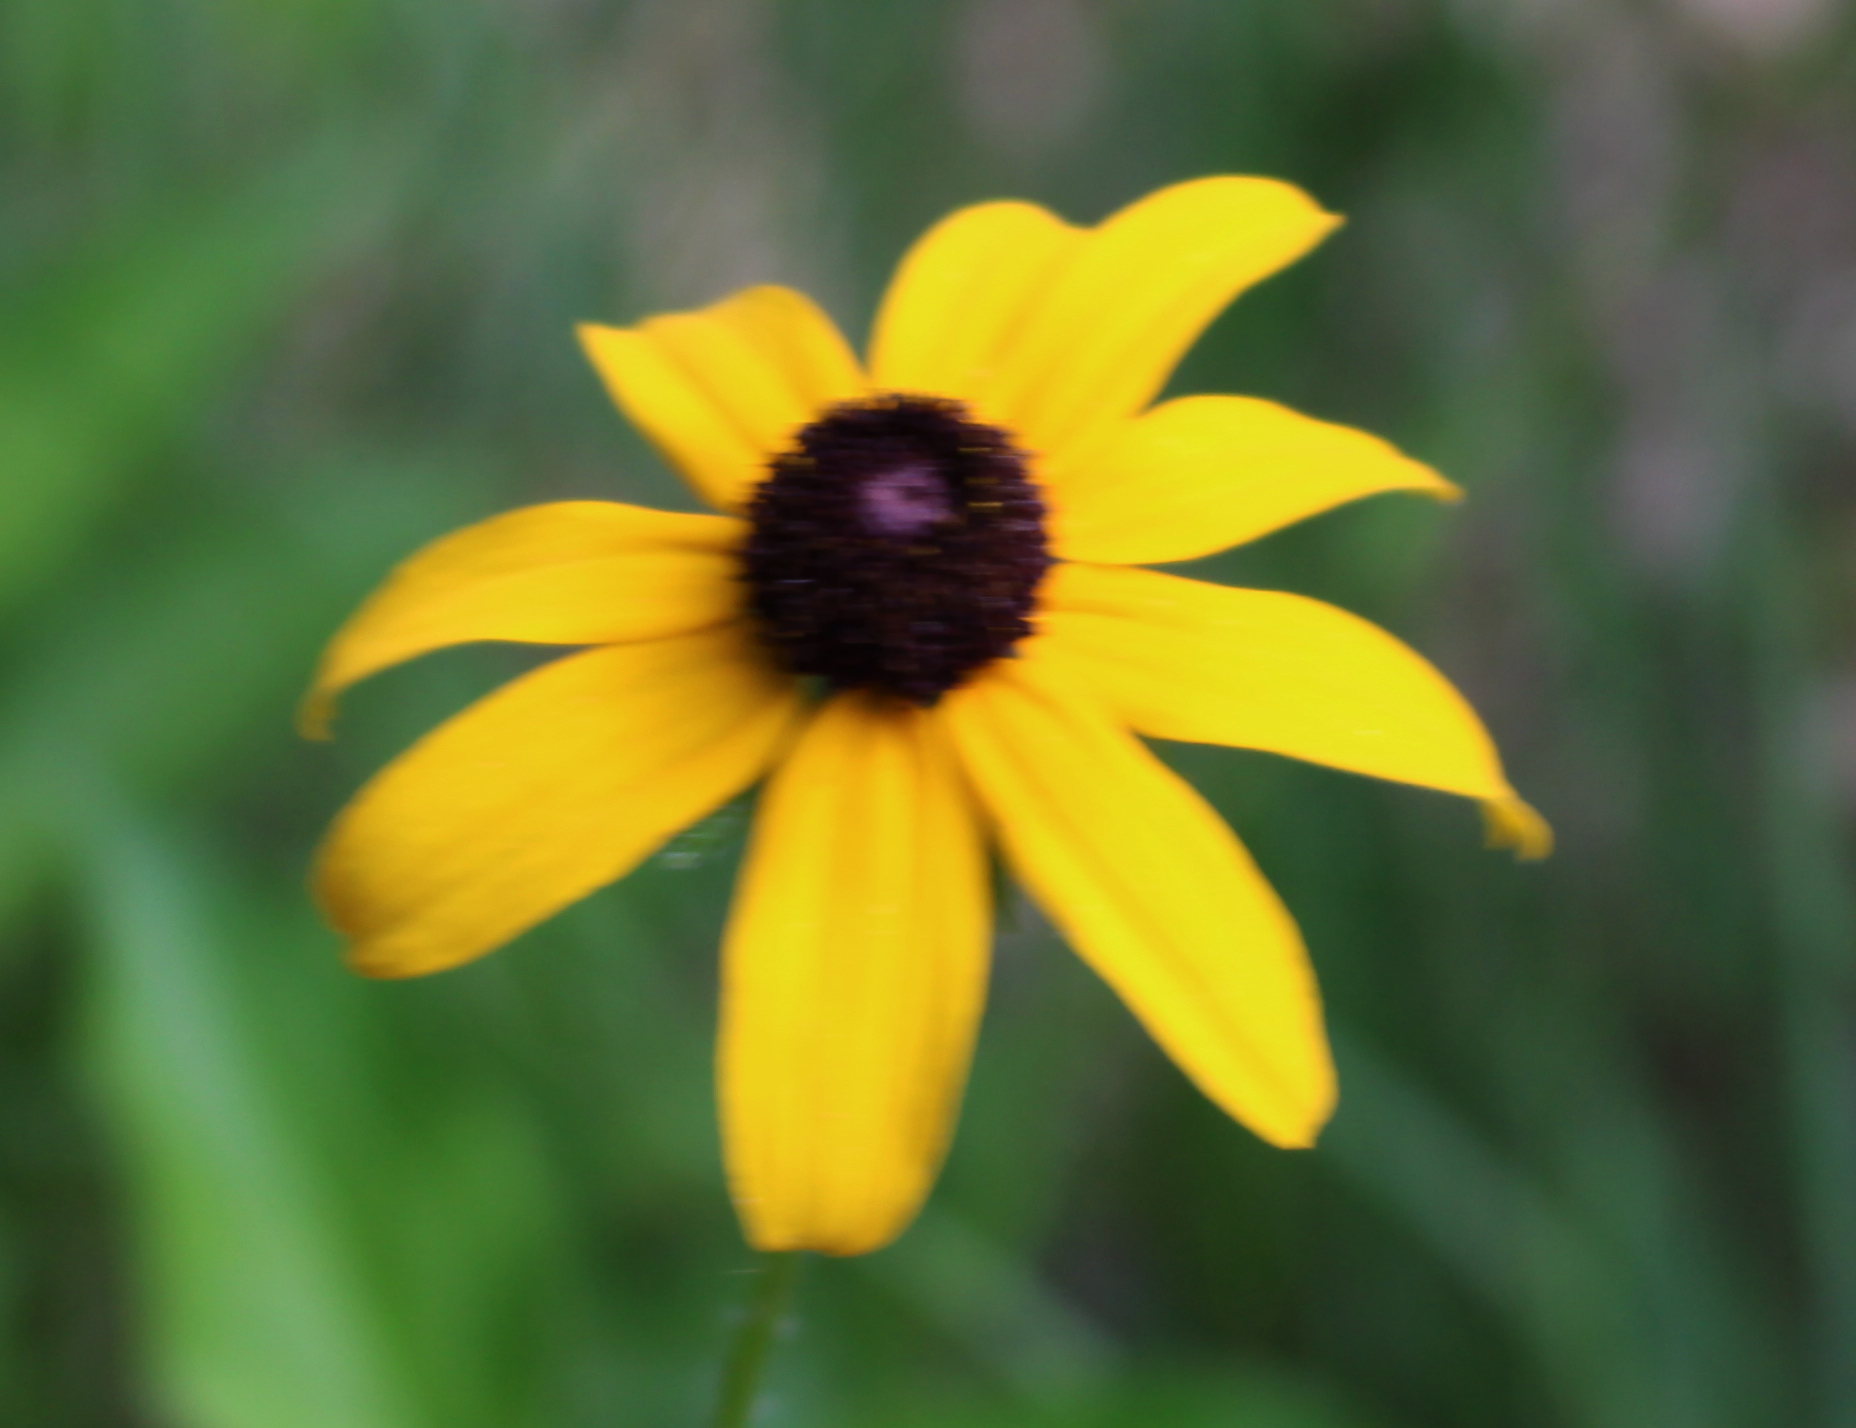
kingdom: Plantae
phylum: Tracheophyta
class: Magnoliopsida
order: Asterales
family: Asteraceae
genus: Rudbeckia
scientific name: Rudbeckia hirta
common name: Black-eyed-susan
